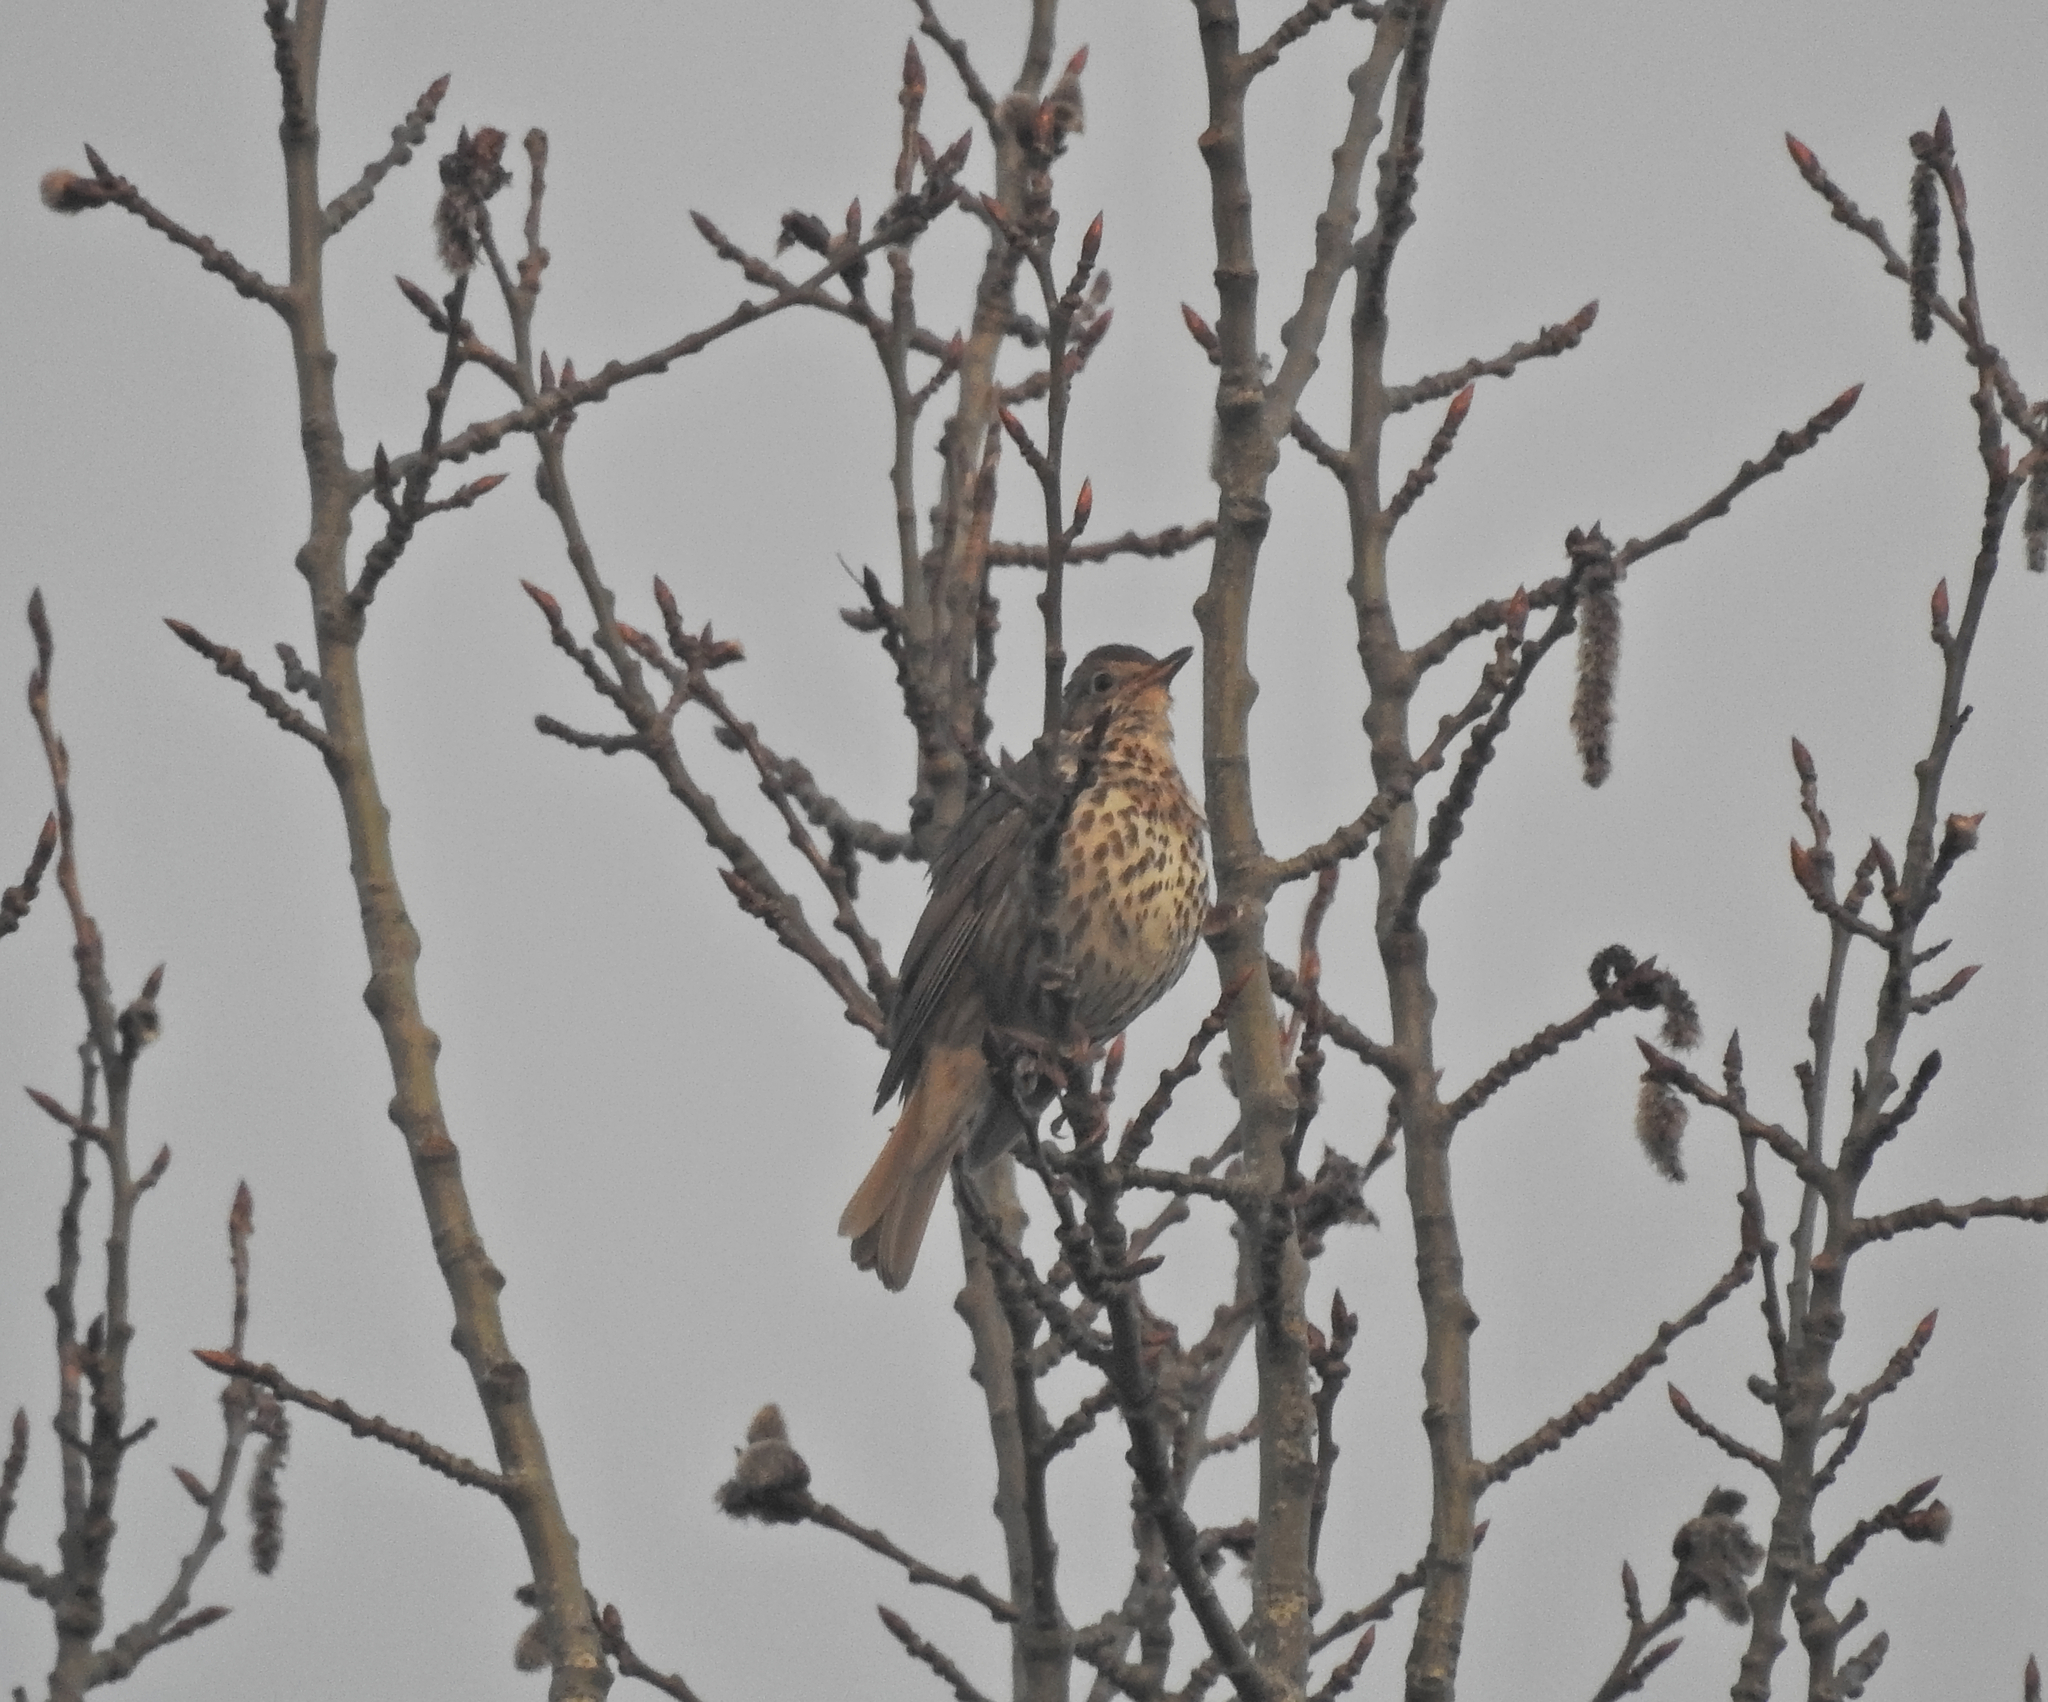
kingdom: Animalia
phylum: Chordata
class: Aves
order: Passeriformes
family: Turdidae
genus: Turdus
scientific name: Turdus philomelos
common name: Song thrush
